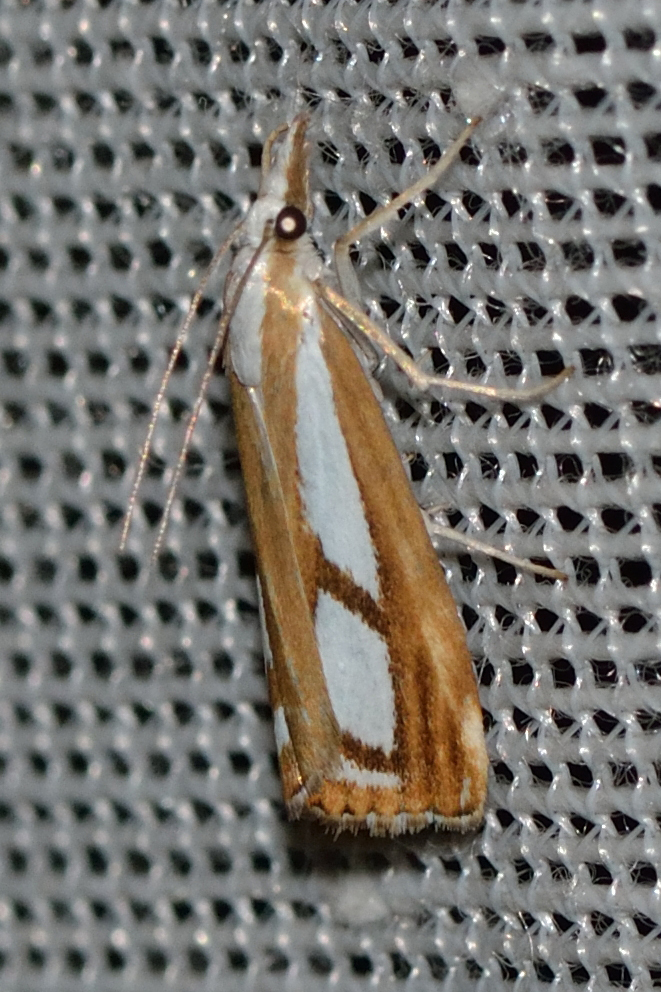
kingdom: Animalia
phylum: Arthropoda
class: Insecta
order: Lepidoptera
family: Crambidae
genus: Catoptria
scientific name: Catoptria permutatellus
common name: Scotch grass-veneer
